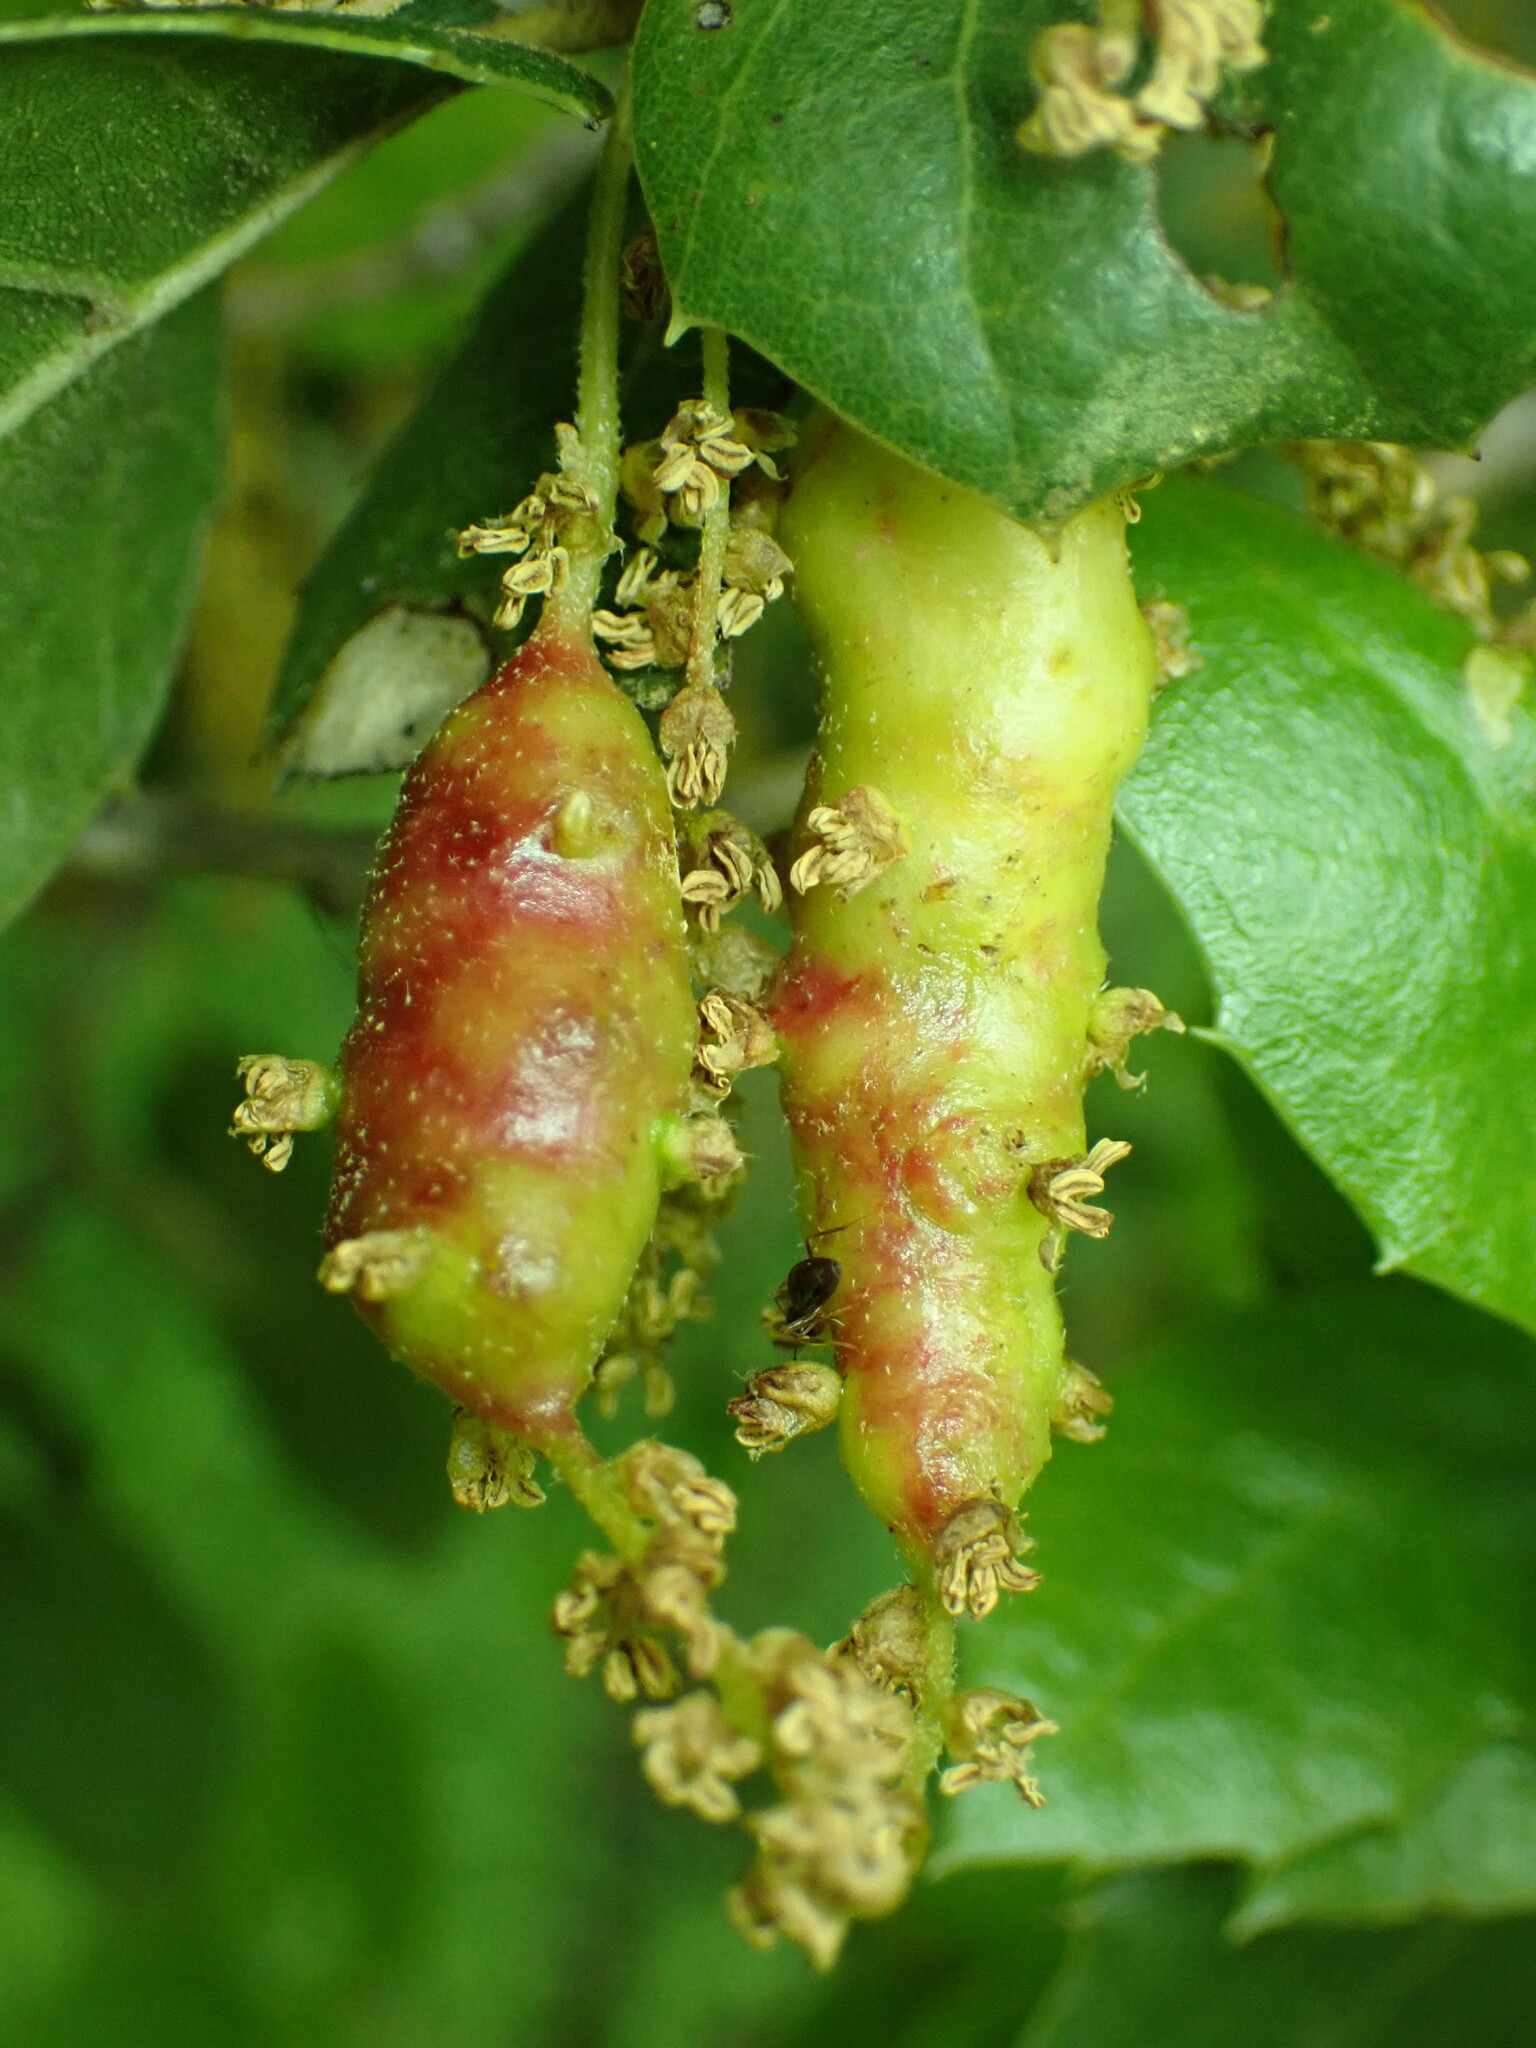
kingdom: Animalia
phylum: Arthropoda
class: Insecta
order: Hymenoptera
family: Cynipidae
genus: Callirhytis
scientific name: Callirhytis
